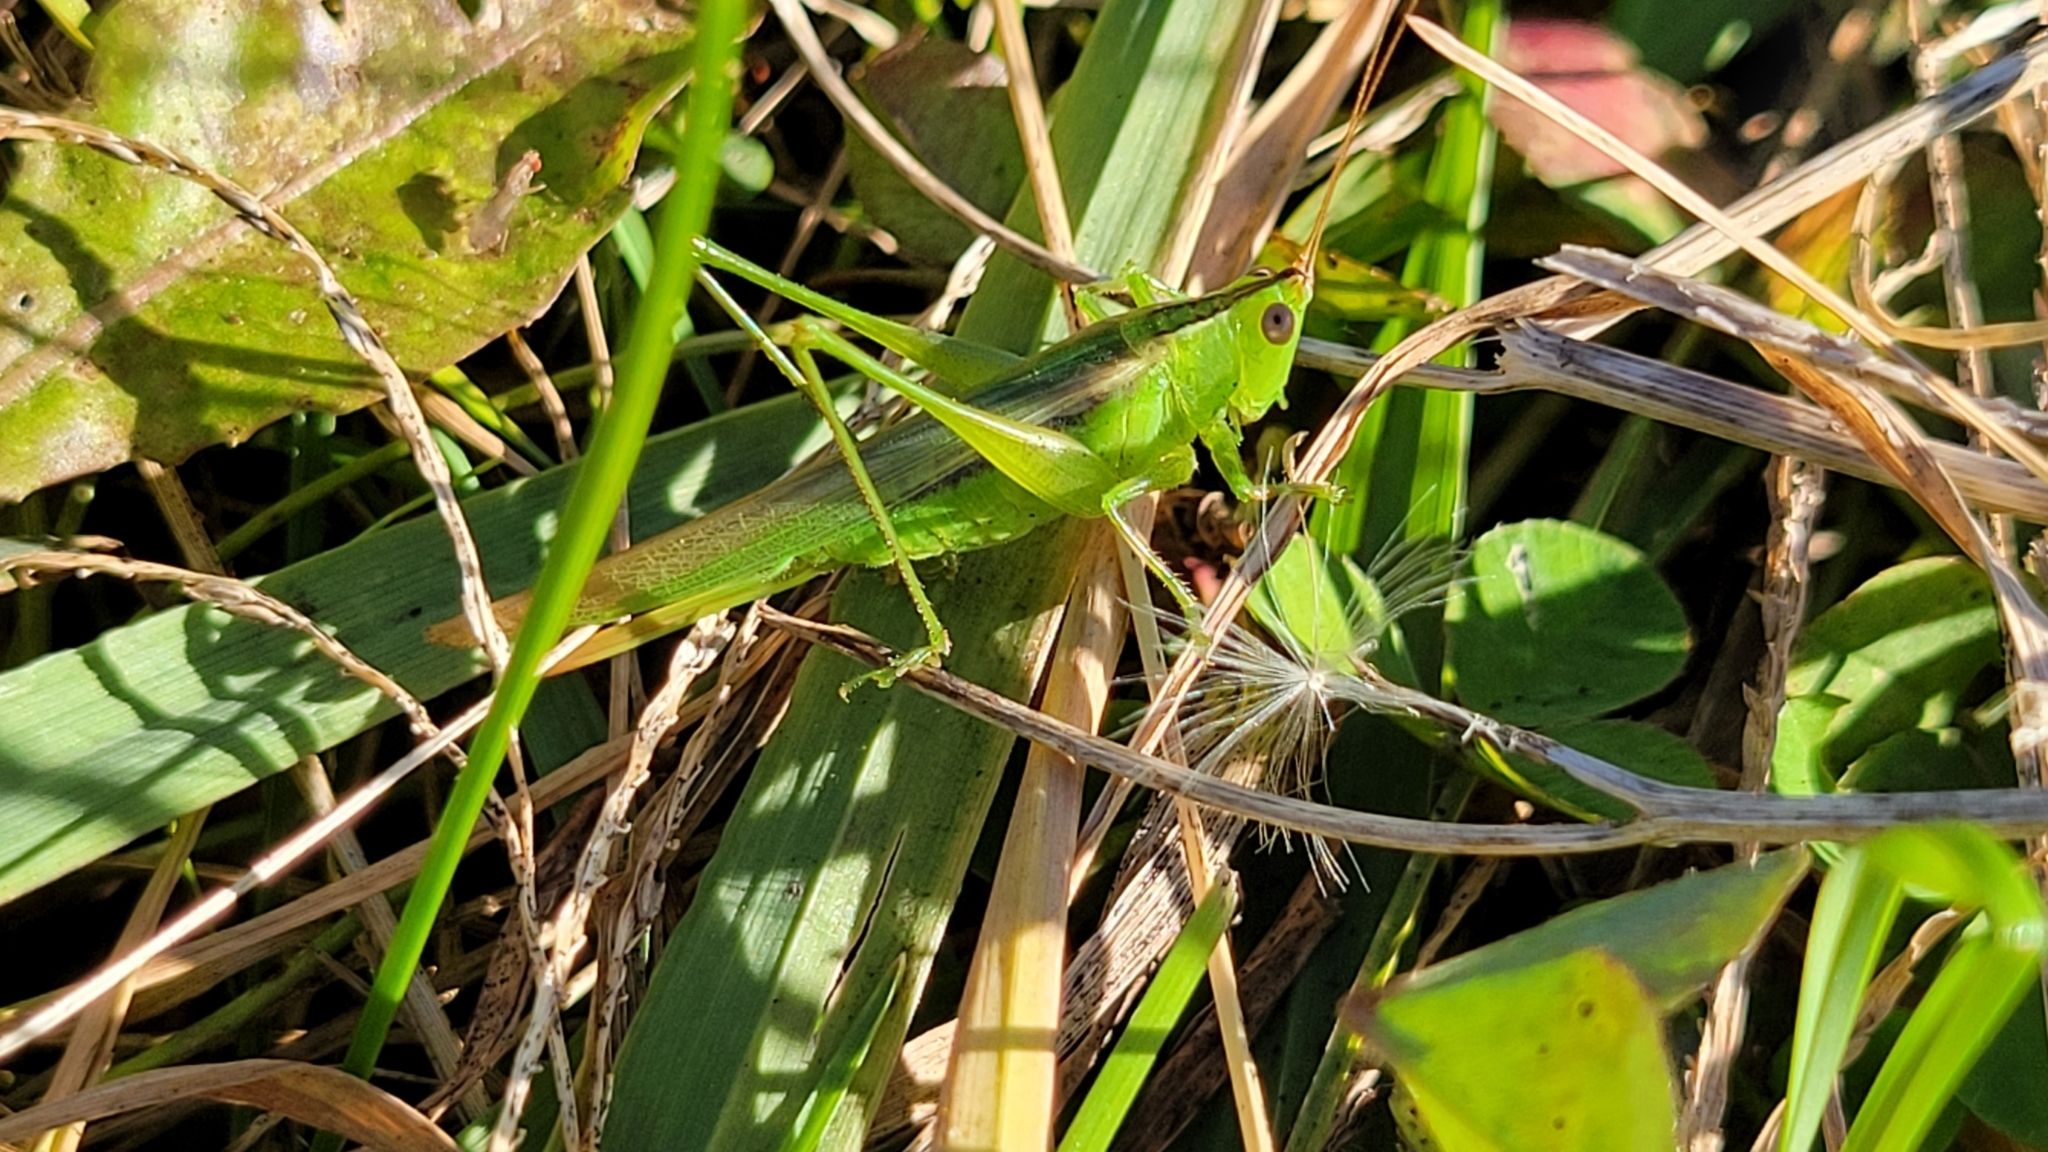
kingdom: Animalia
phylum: Arthropoda
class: Insecta
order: Orthoptera
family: Tettigoniidae
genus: Conocephalus
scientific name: Conocephalus fasciatus
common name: Slender meadow katydid
